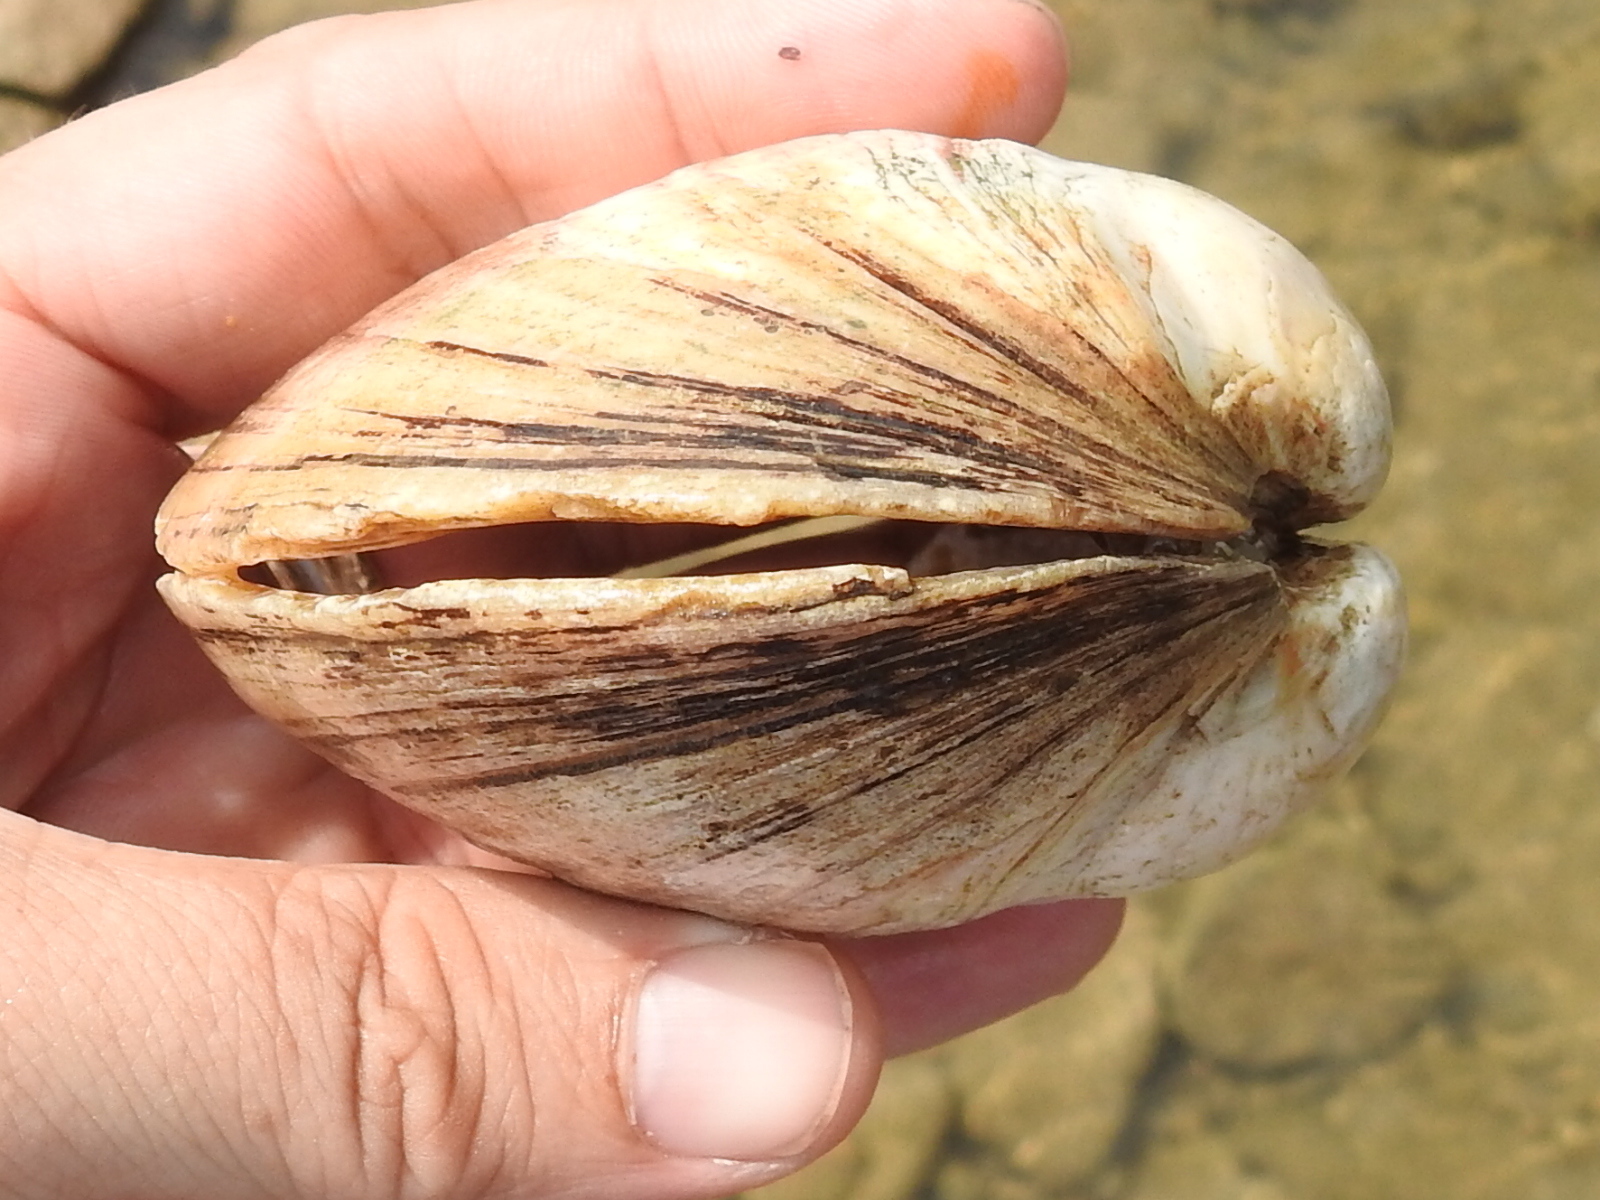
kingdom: Animalia
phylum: Mollusca
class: Bivalvia
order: Unionida
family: Unionidae
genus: Cyrtonaias
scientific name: Cyrtonaias tampicoensis
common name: Tampico pearlymussel
